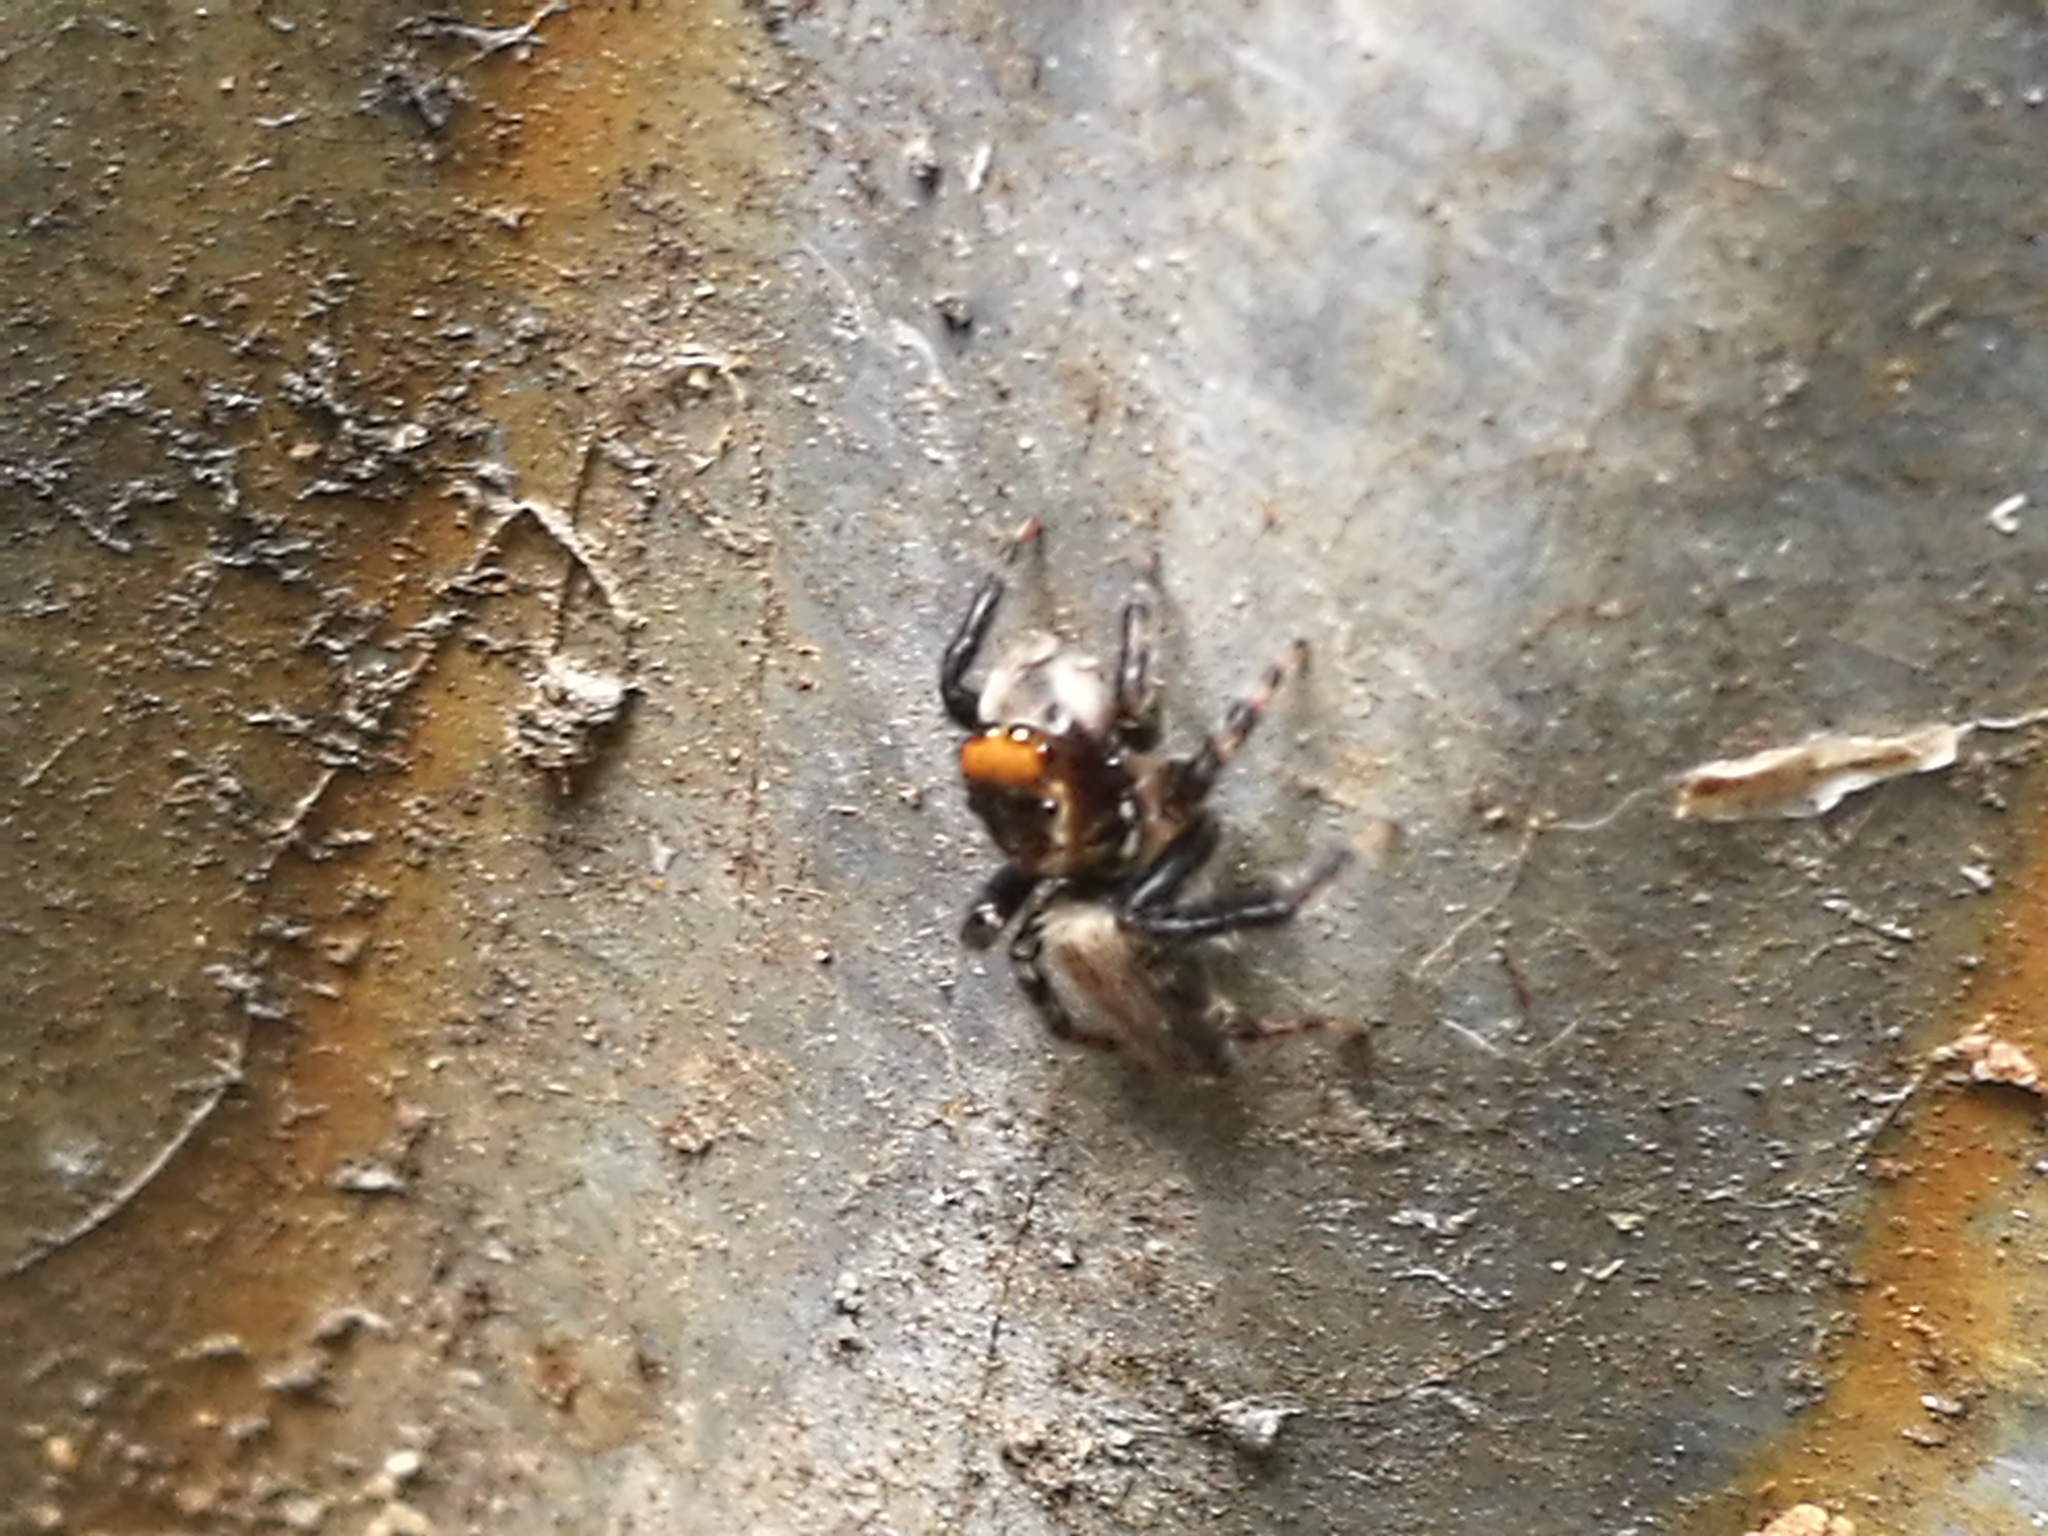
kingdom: Animalia
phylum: Arthropoda
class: Arachnida
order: Araneae
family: Salticidae
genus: Maratus
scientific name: Maratus griseus
